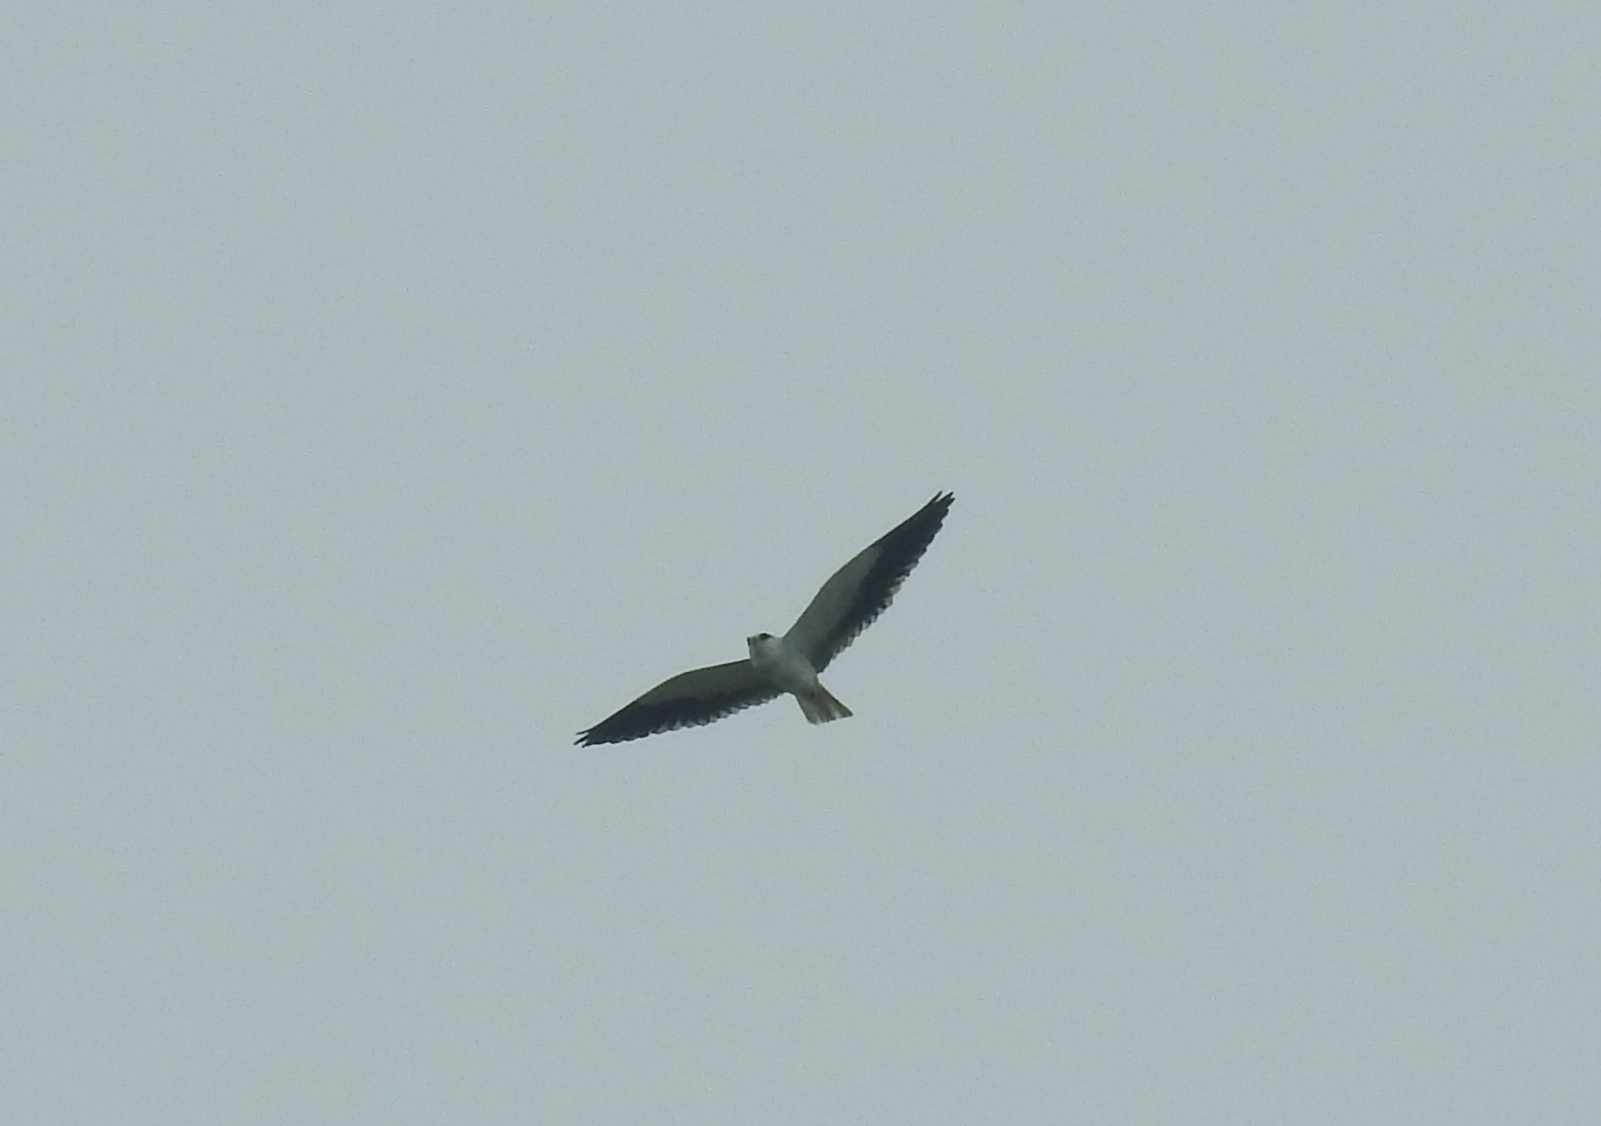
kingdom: Animalia
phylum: Chordata
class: Aves
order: Accipitriformes
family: Accipitridae
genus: Elanus
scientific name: Elanus caeruleus
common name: Black-winged kite
